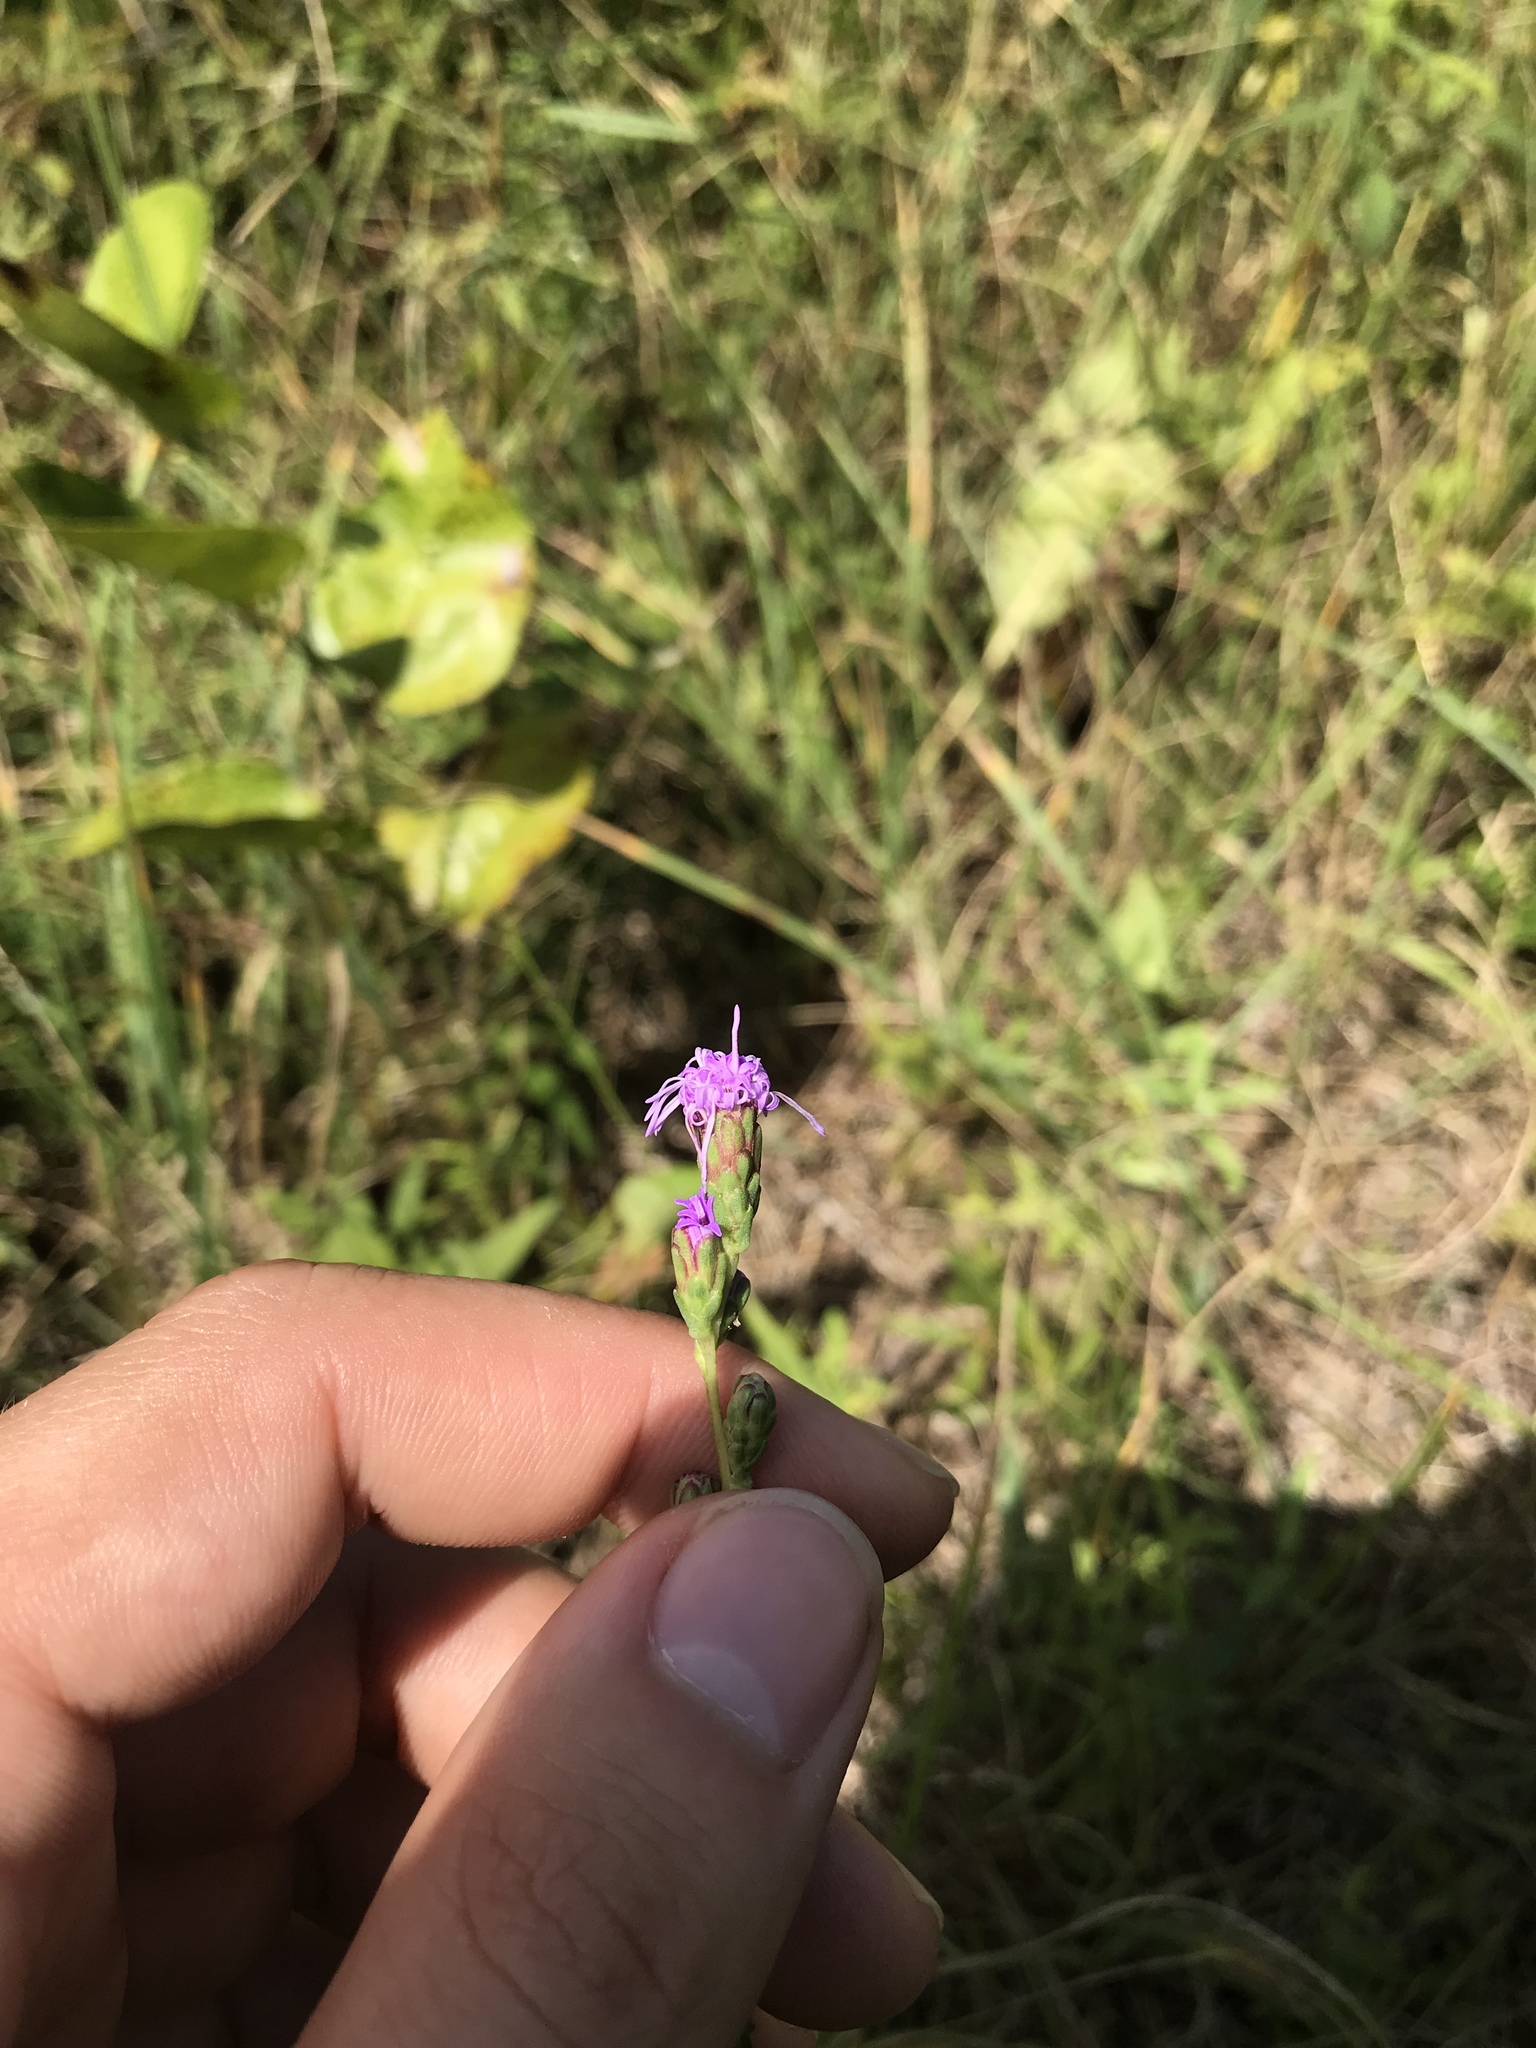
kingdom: Plantae
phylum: Tracheophyta
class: Magnoliopsida
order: Asterales
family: Asteraceae
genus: Liatris
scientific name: Liatris pilosa
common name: Grass-leaf gayfeather
